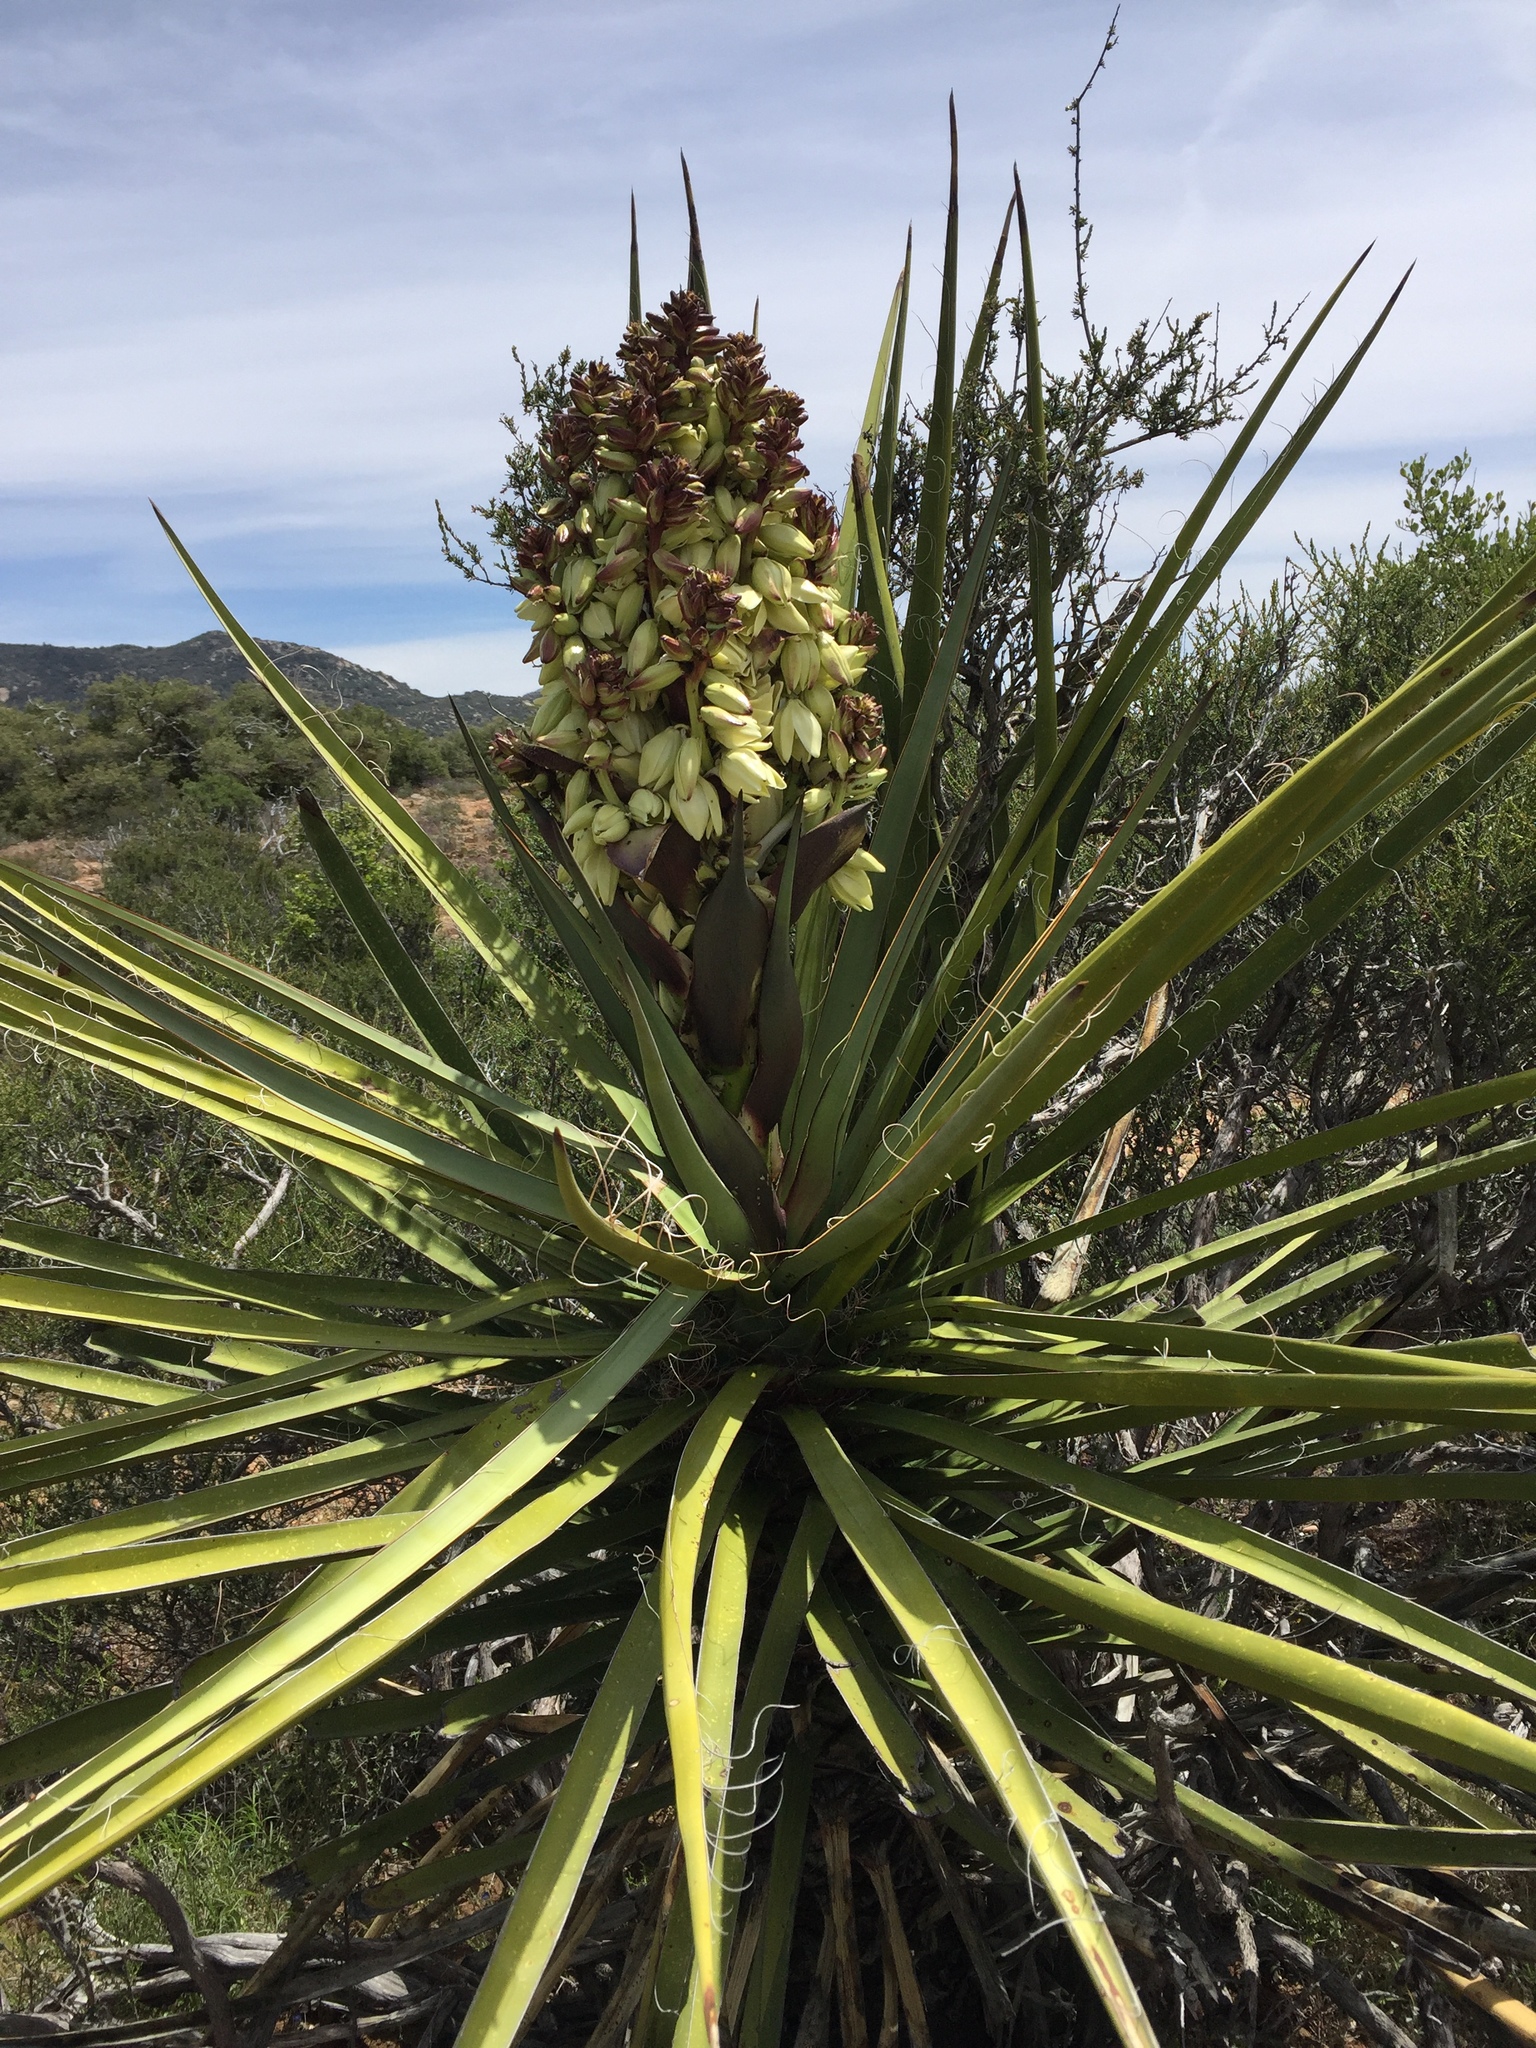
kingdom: Plantae
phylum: Tracheophyta
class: Liliopsida
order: Asparagales
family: Asparagaceae
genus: Yucca
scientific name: Yucca schidigera
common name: Mojave yucca
